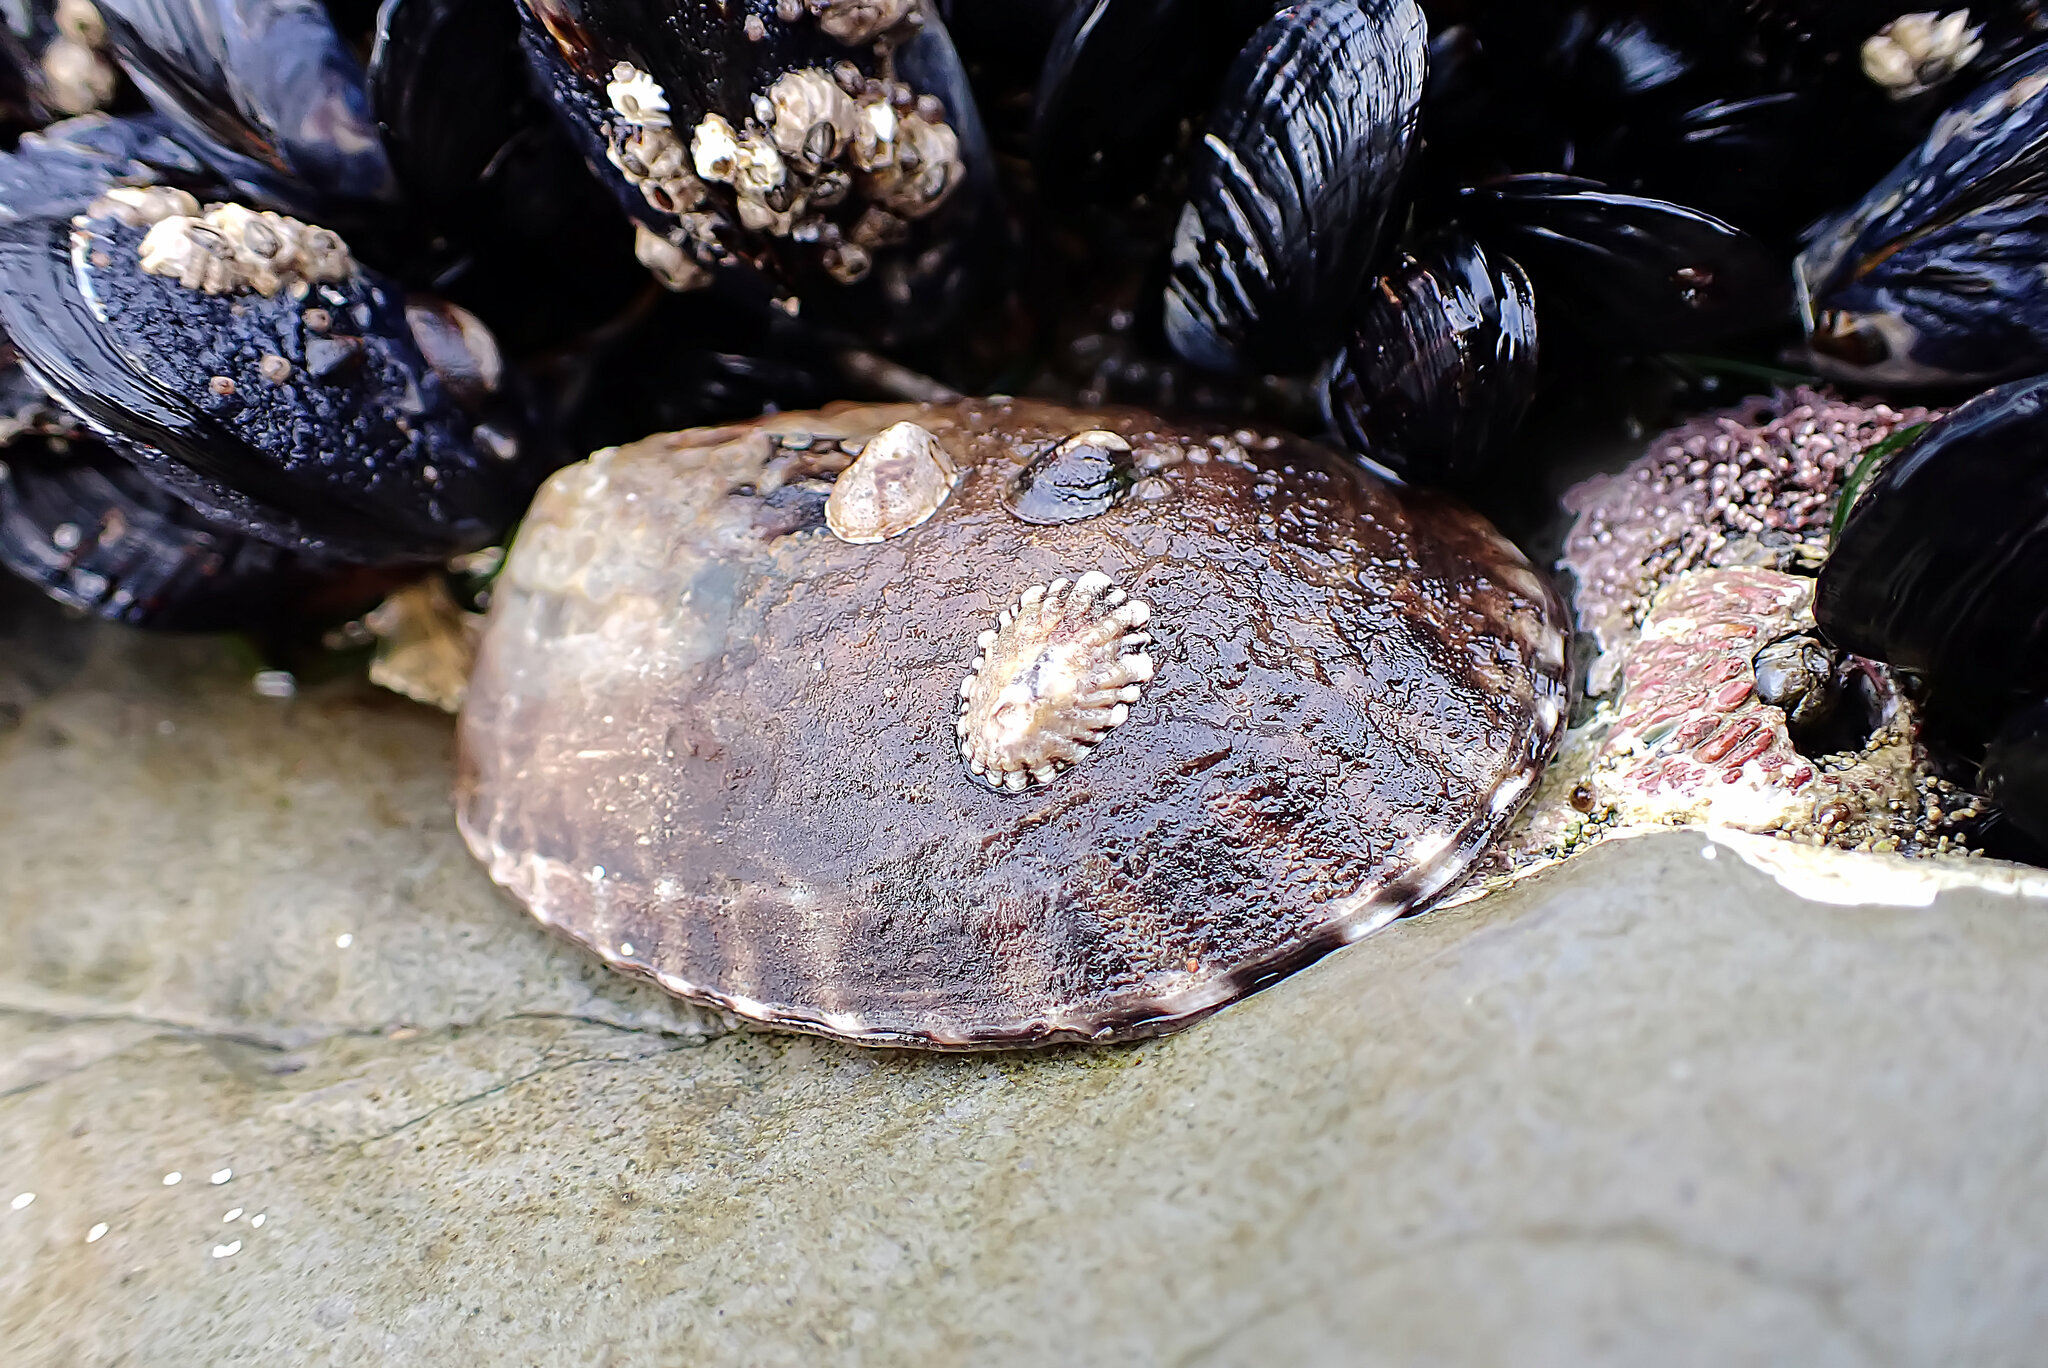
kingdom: Animalia
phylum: Mollusca
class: Gastropoda
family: Lottiidae
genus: Lottia
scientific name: Lottia gigantea
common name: Owl limpet
